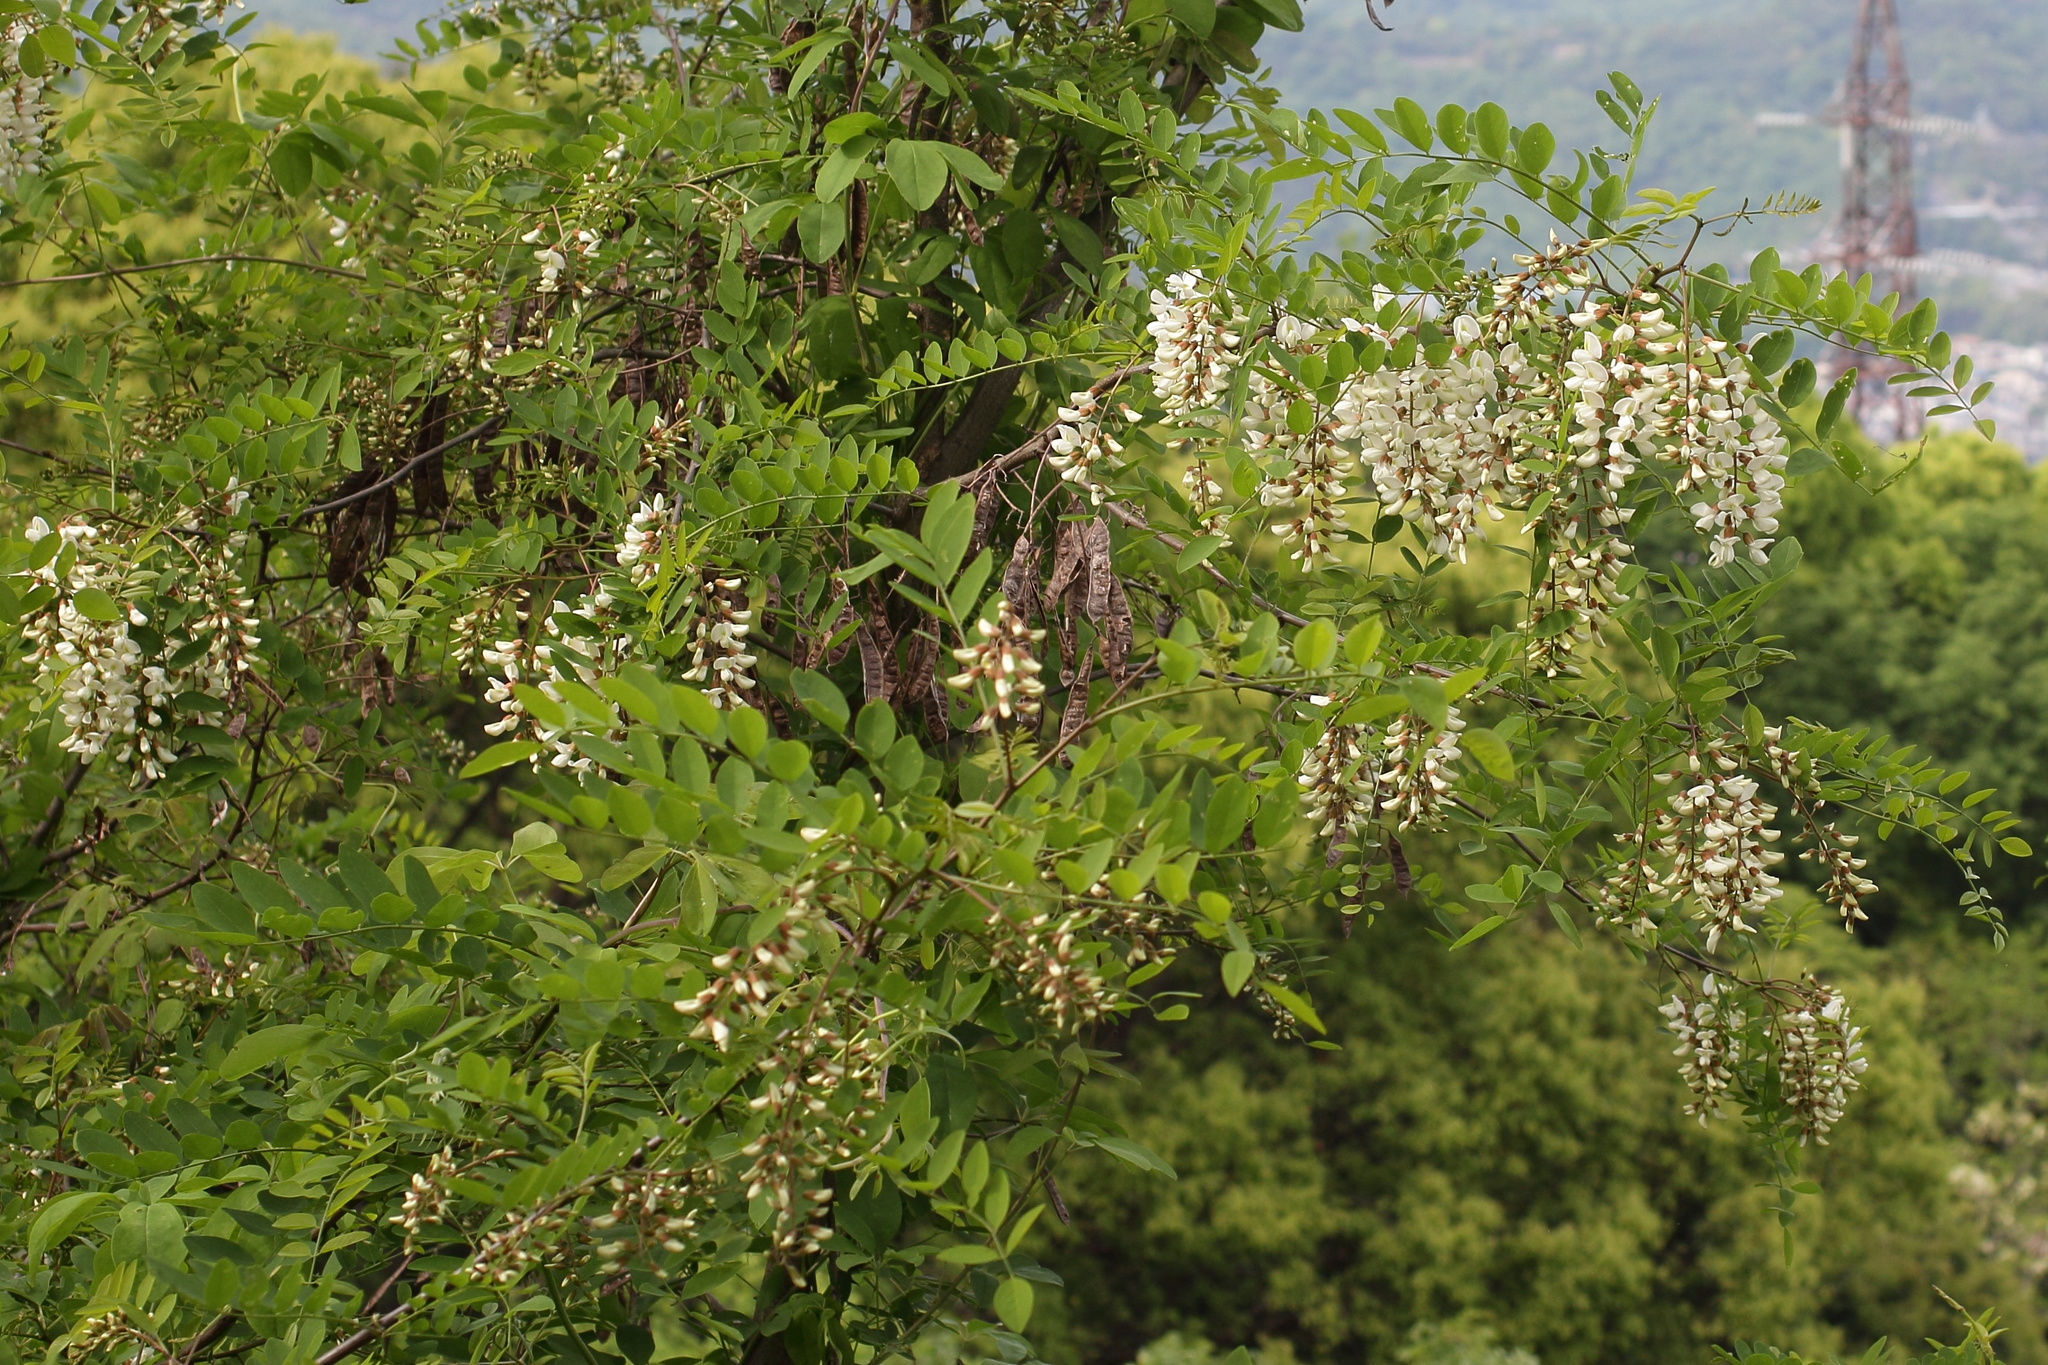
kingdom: Plantae
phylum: Tracheophyta
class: Magnoliopsida
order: Fabales
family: Fabaceae
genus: Robinia
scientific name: Robinia pseudoacacia
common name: Black locust
